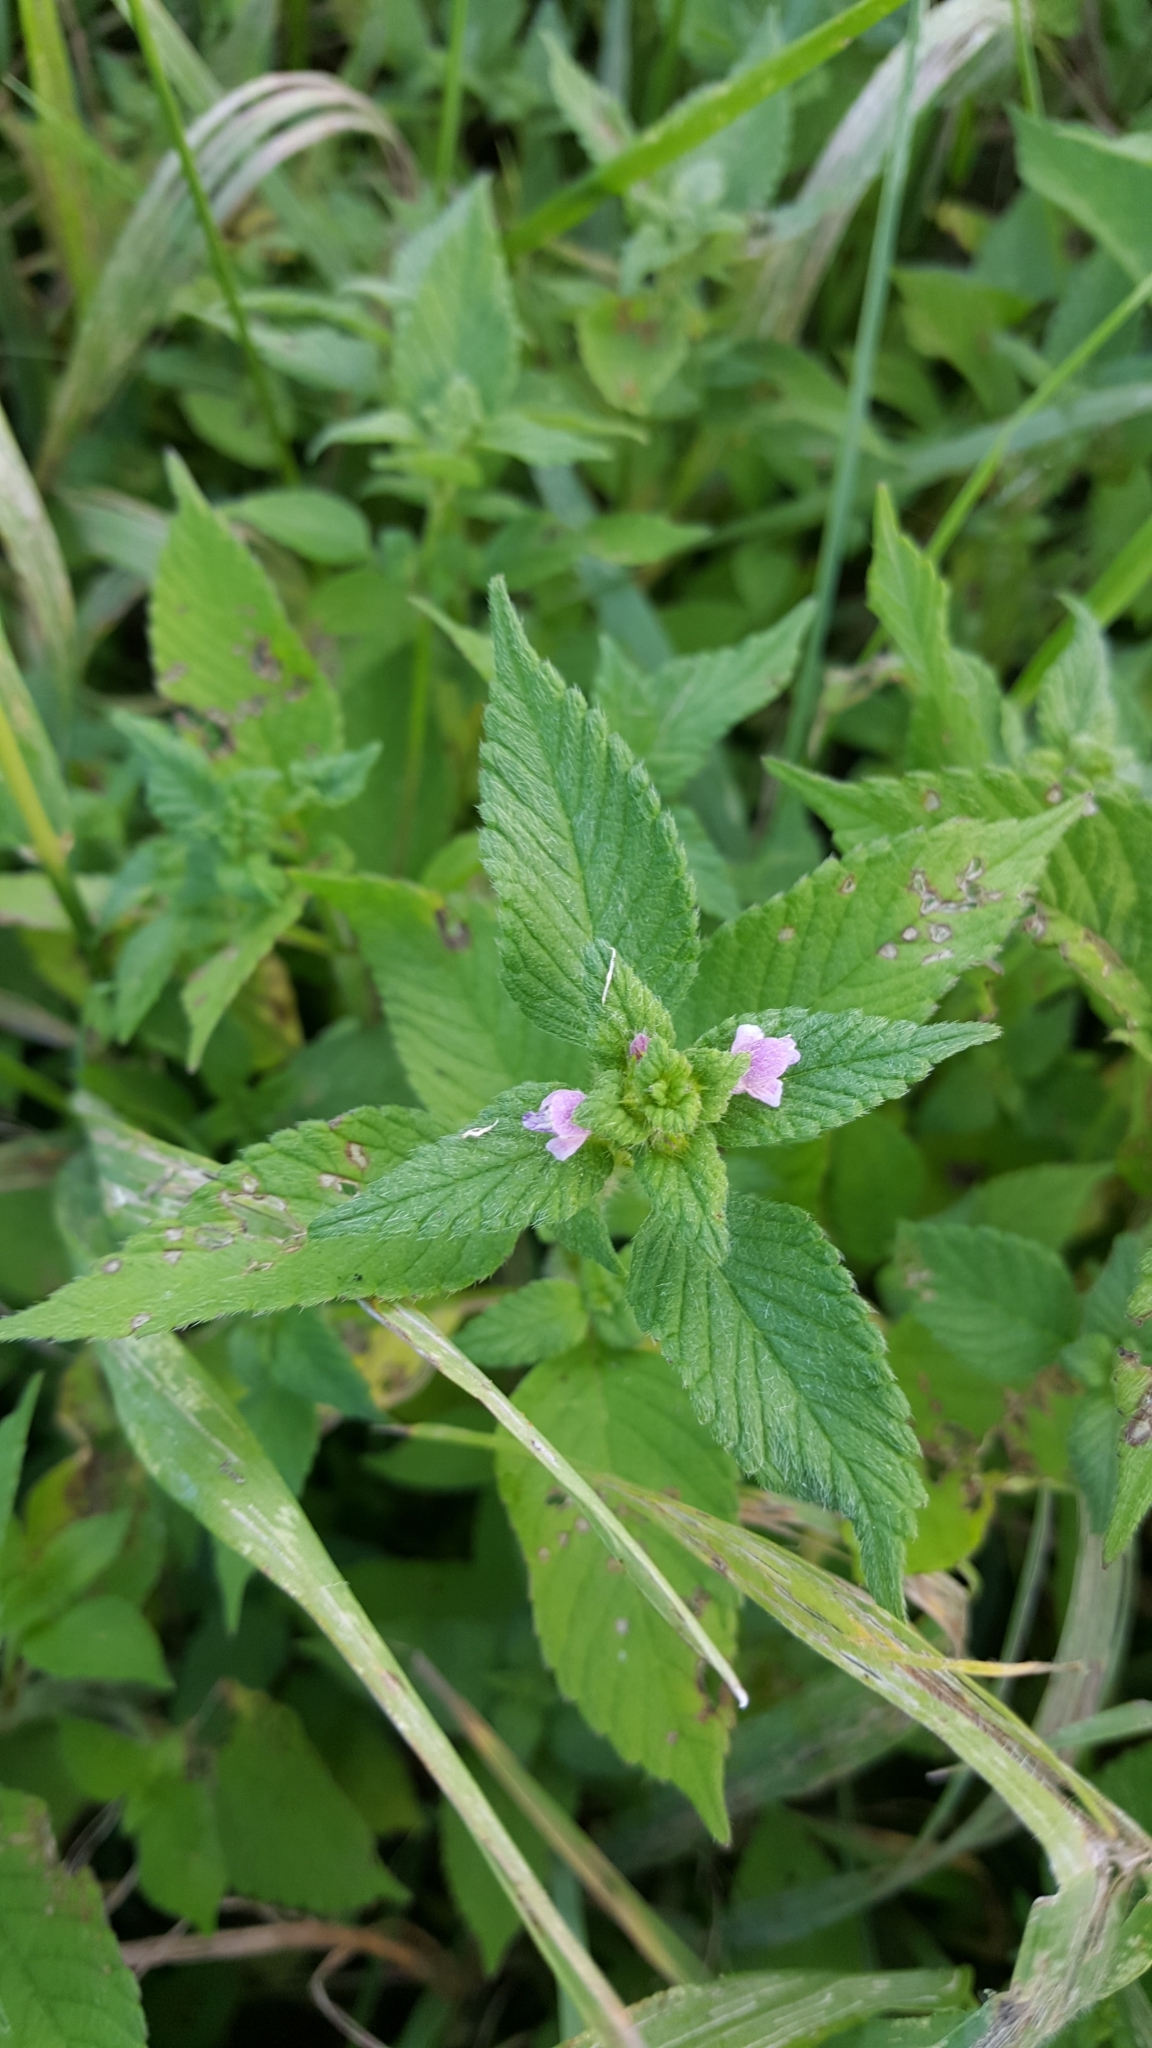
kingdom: Plantae
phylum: Tracheophyta
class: Magnoliopsida
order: Lamiales
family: Lamiaceae
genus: Galeopsis
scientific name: Galeopsis bifida
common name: Bifid hemp-nettle
